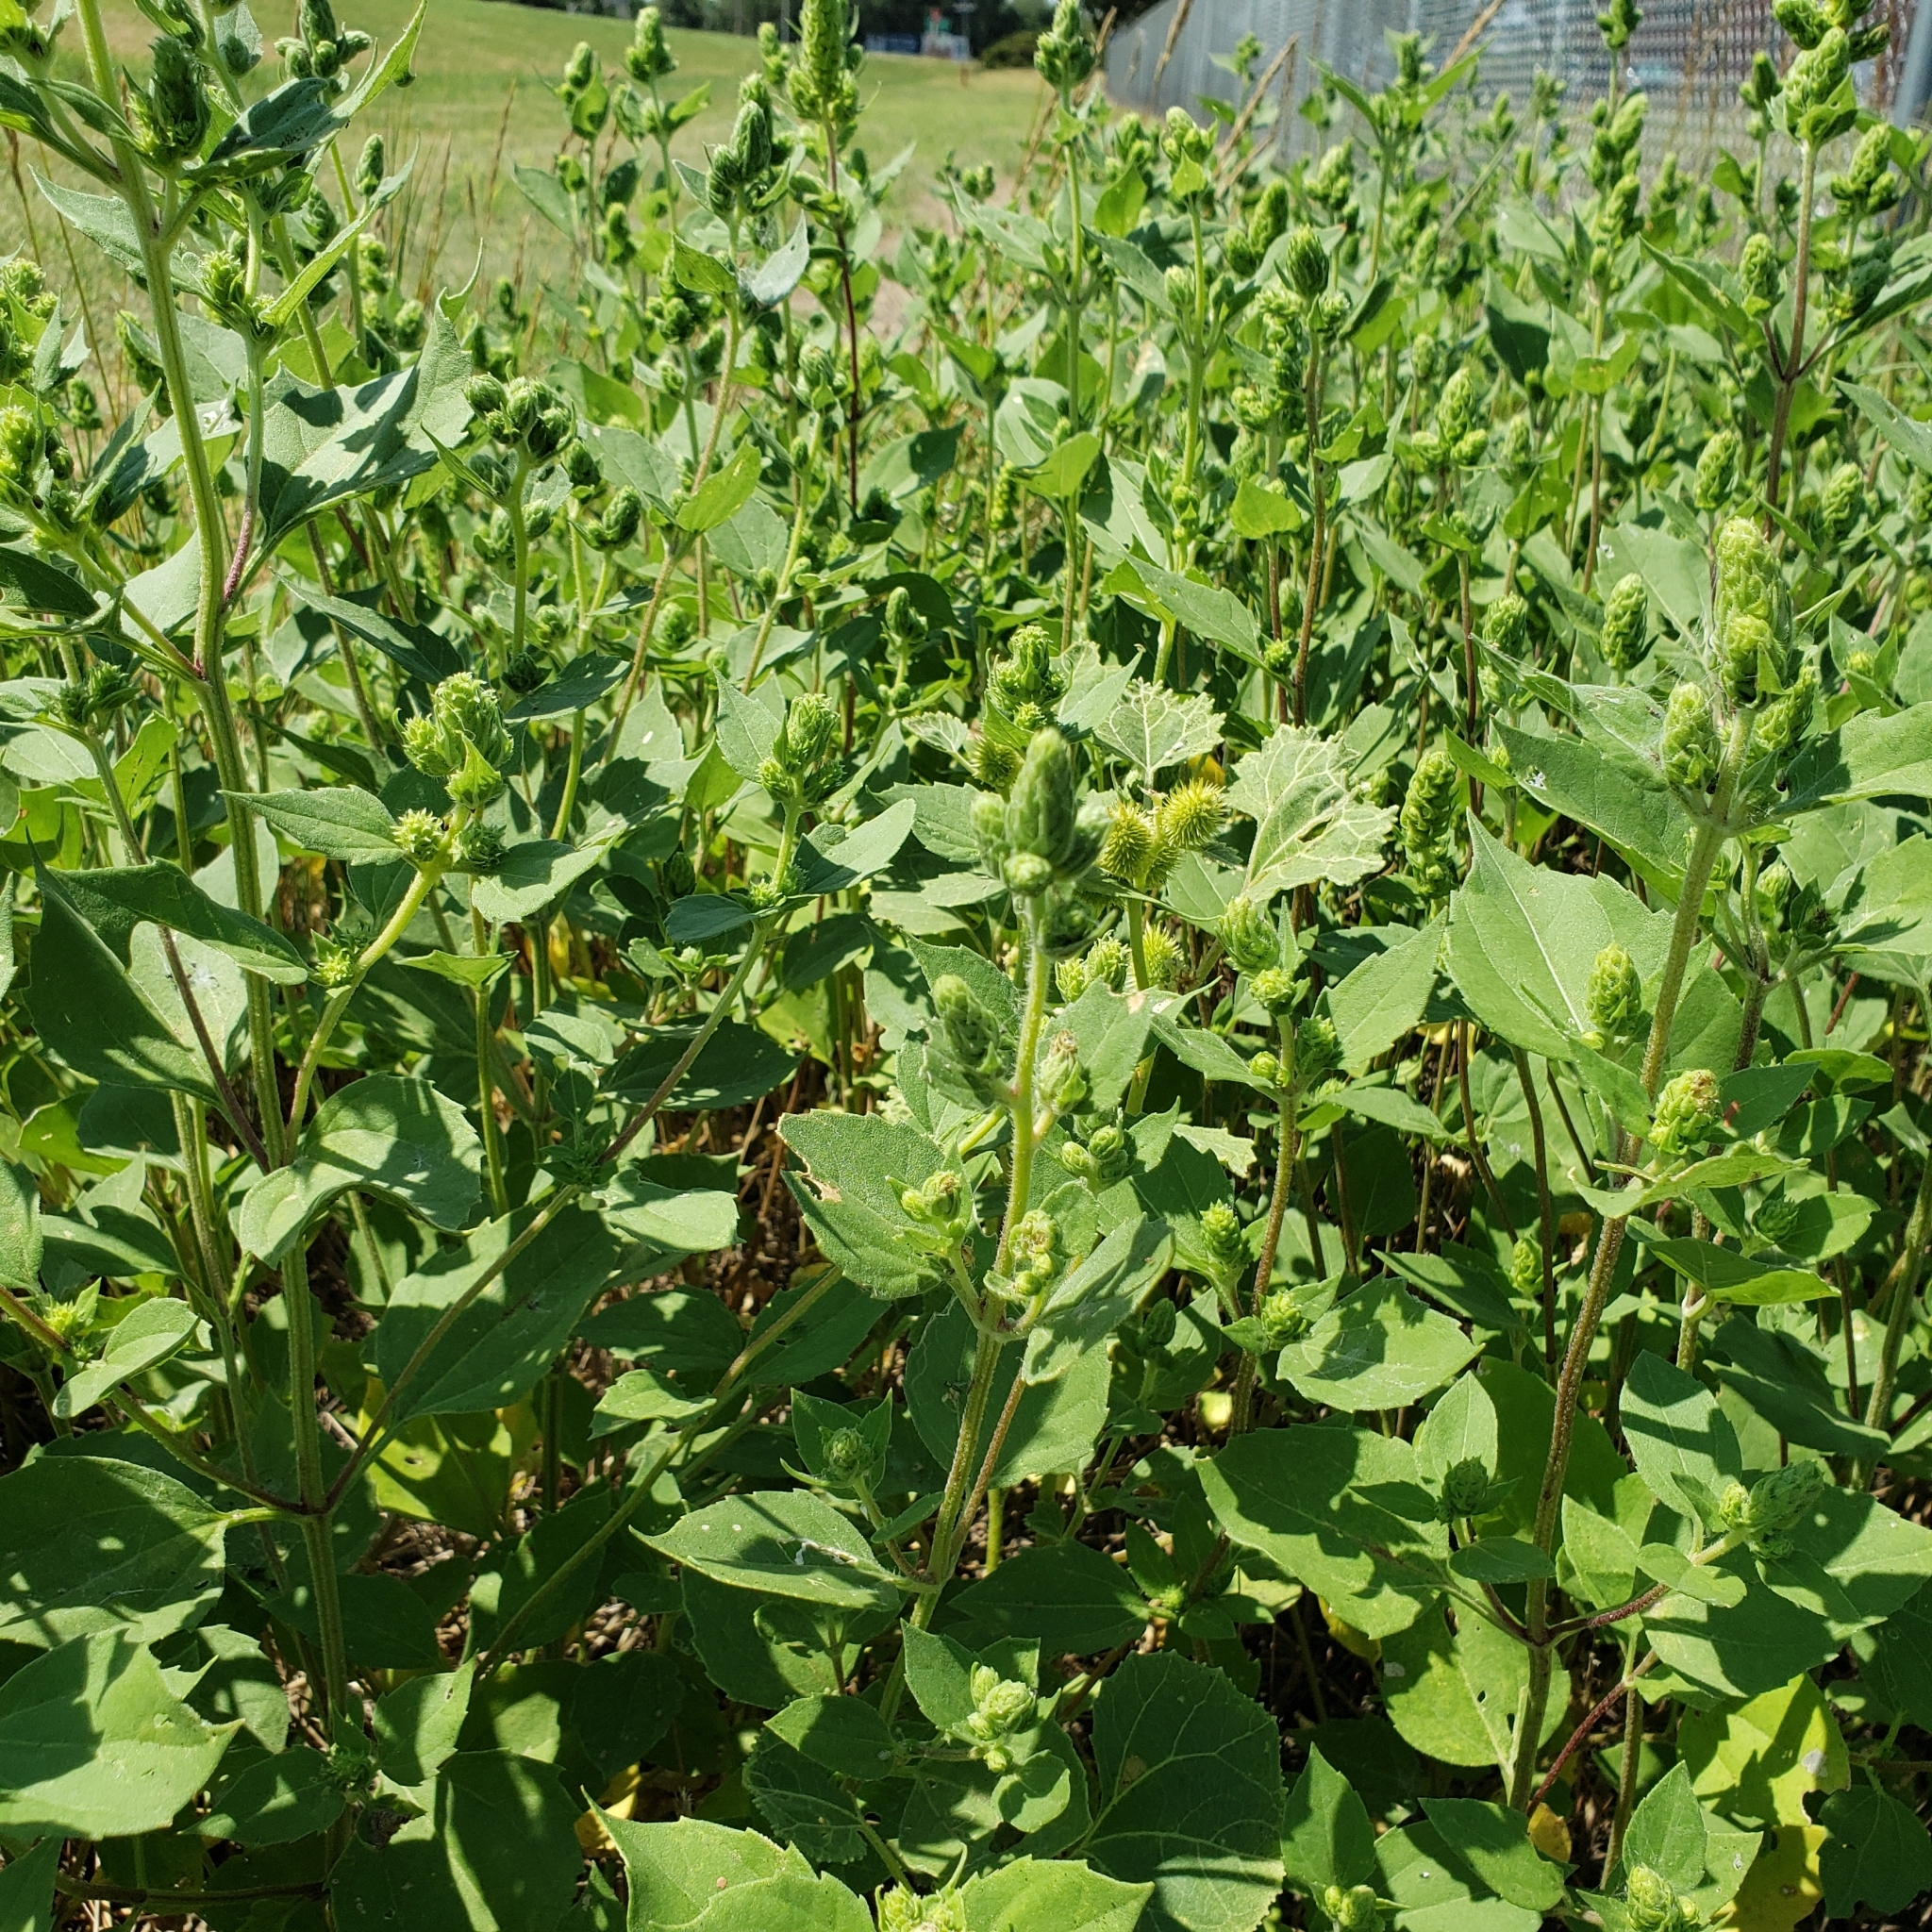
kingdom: Plantae
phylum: Tracheophyta
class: Magnoliopsida
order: Asterales
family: Asteraceae
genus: Iva
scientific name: Iva annua
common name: Marsh-elder
